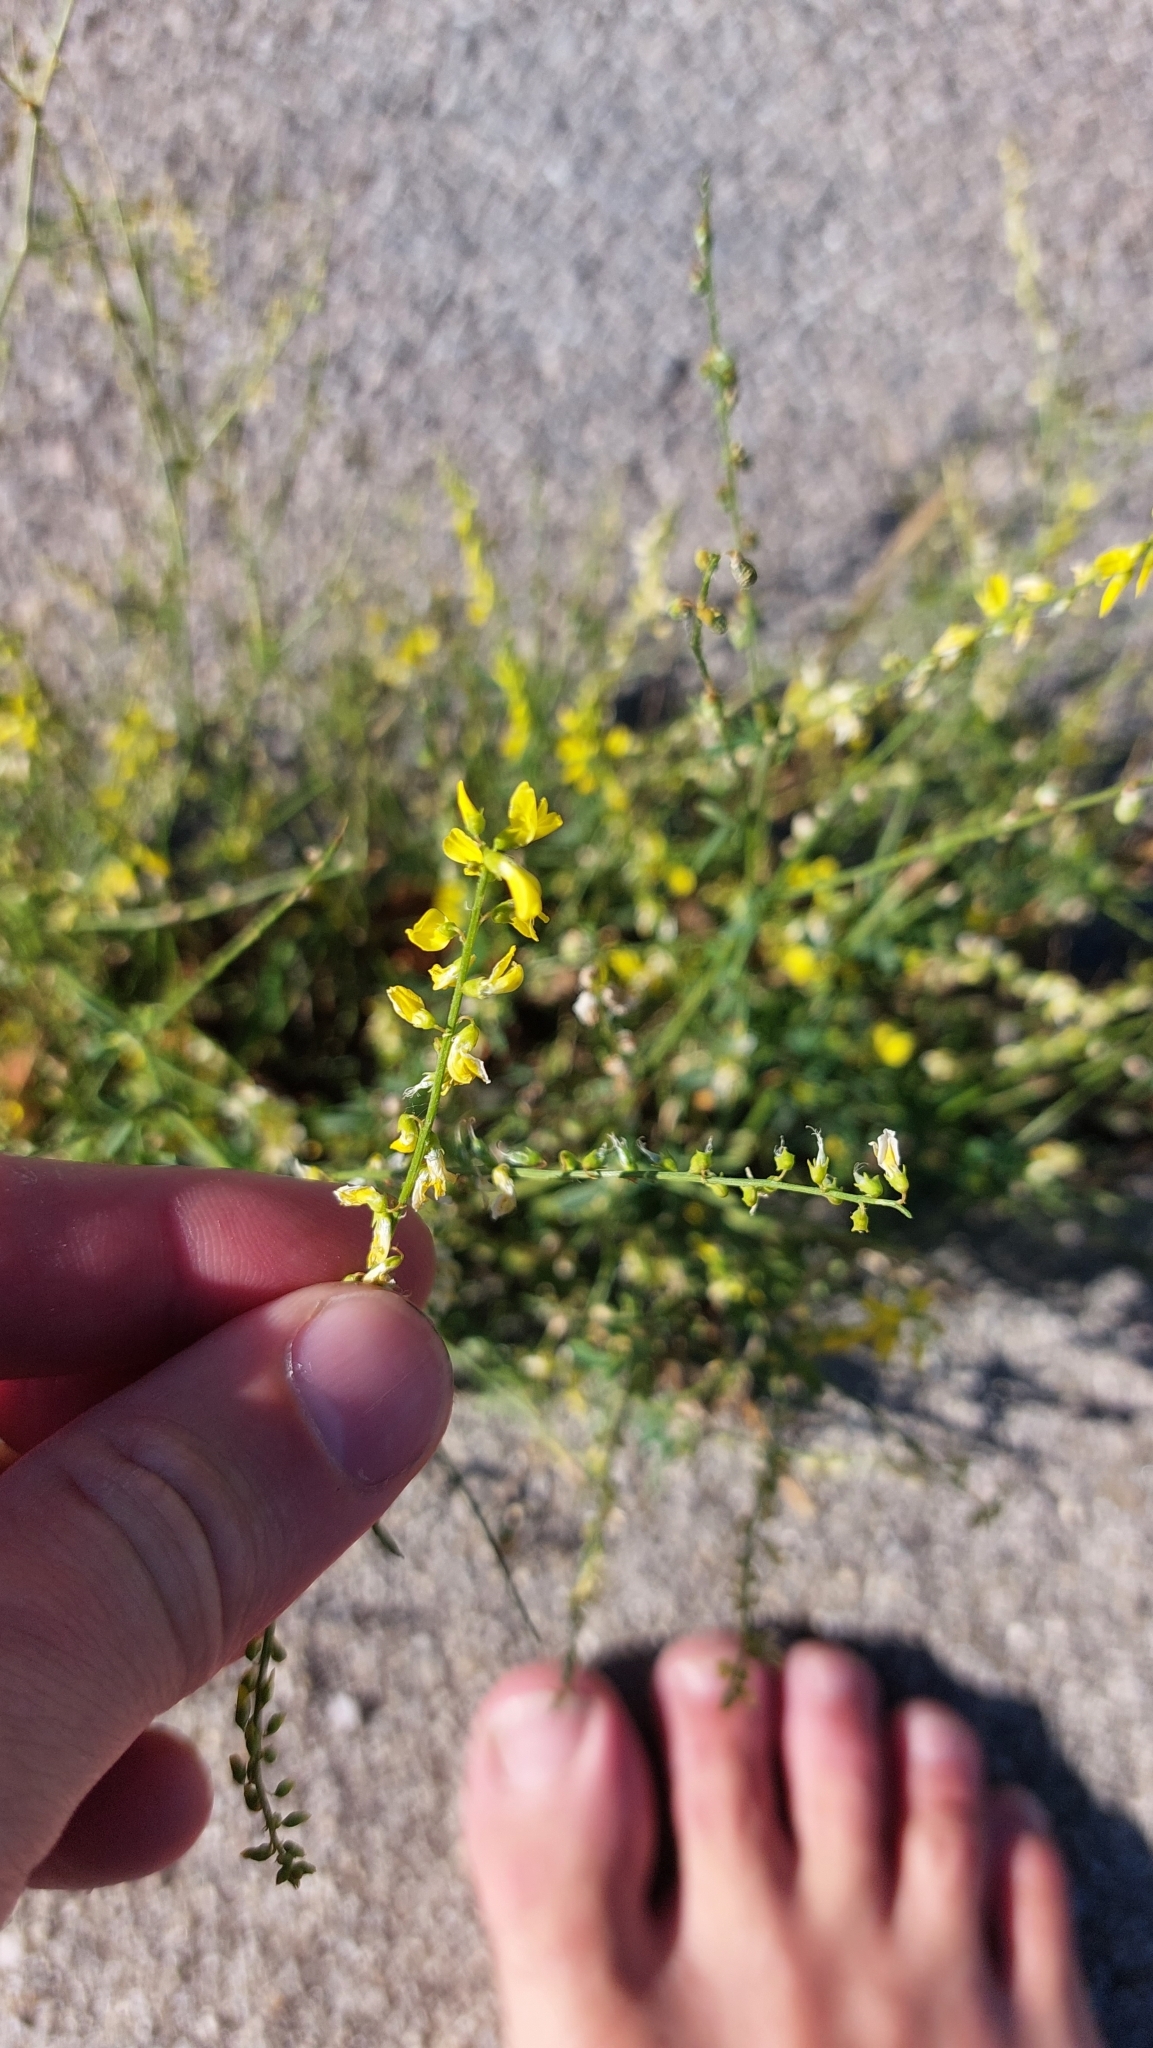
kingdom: Plantae
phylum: Tracheophyta
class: Magnoliopsida
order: Fabales
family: Fabaceae
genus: Melilotus
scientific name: Melilotus officinalis
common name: Sweetclover
